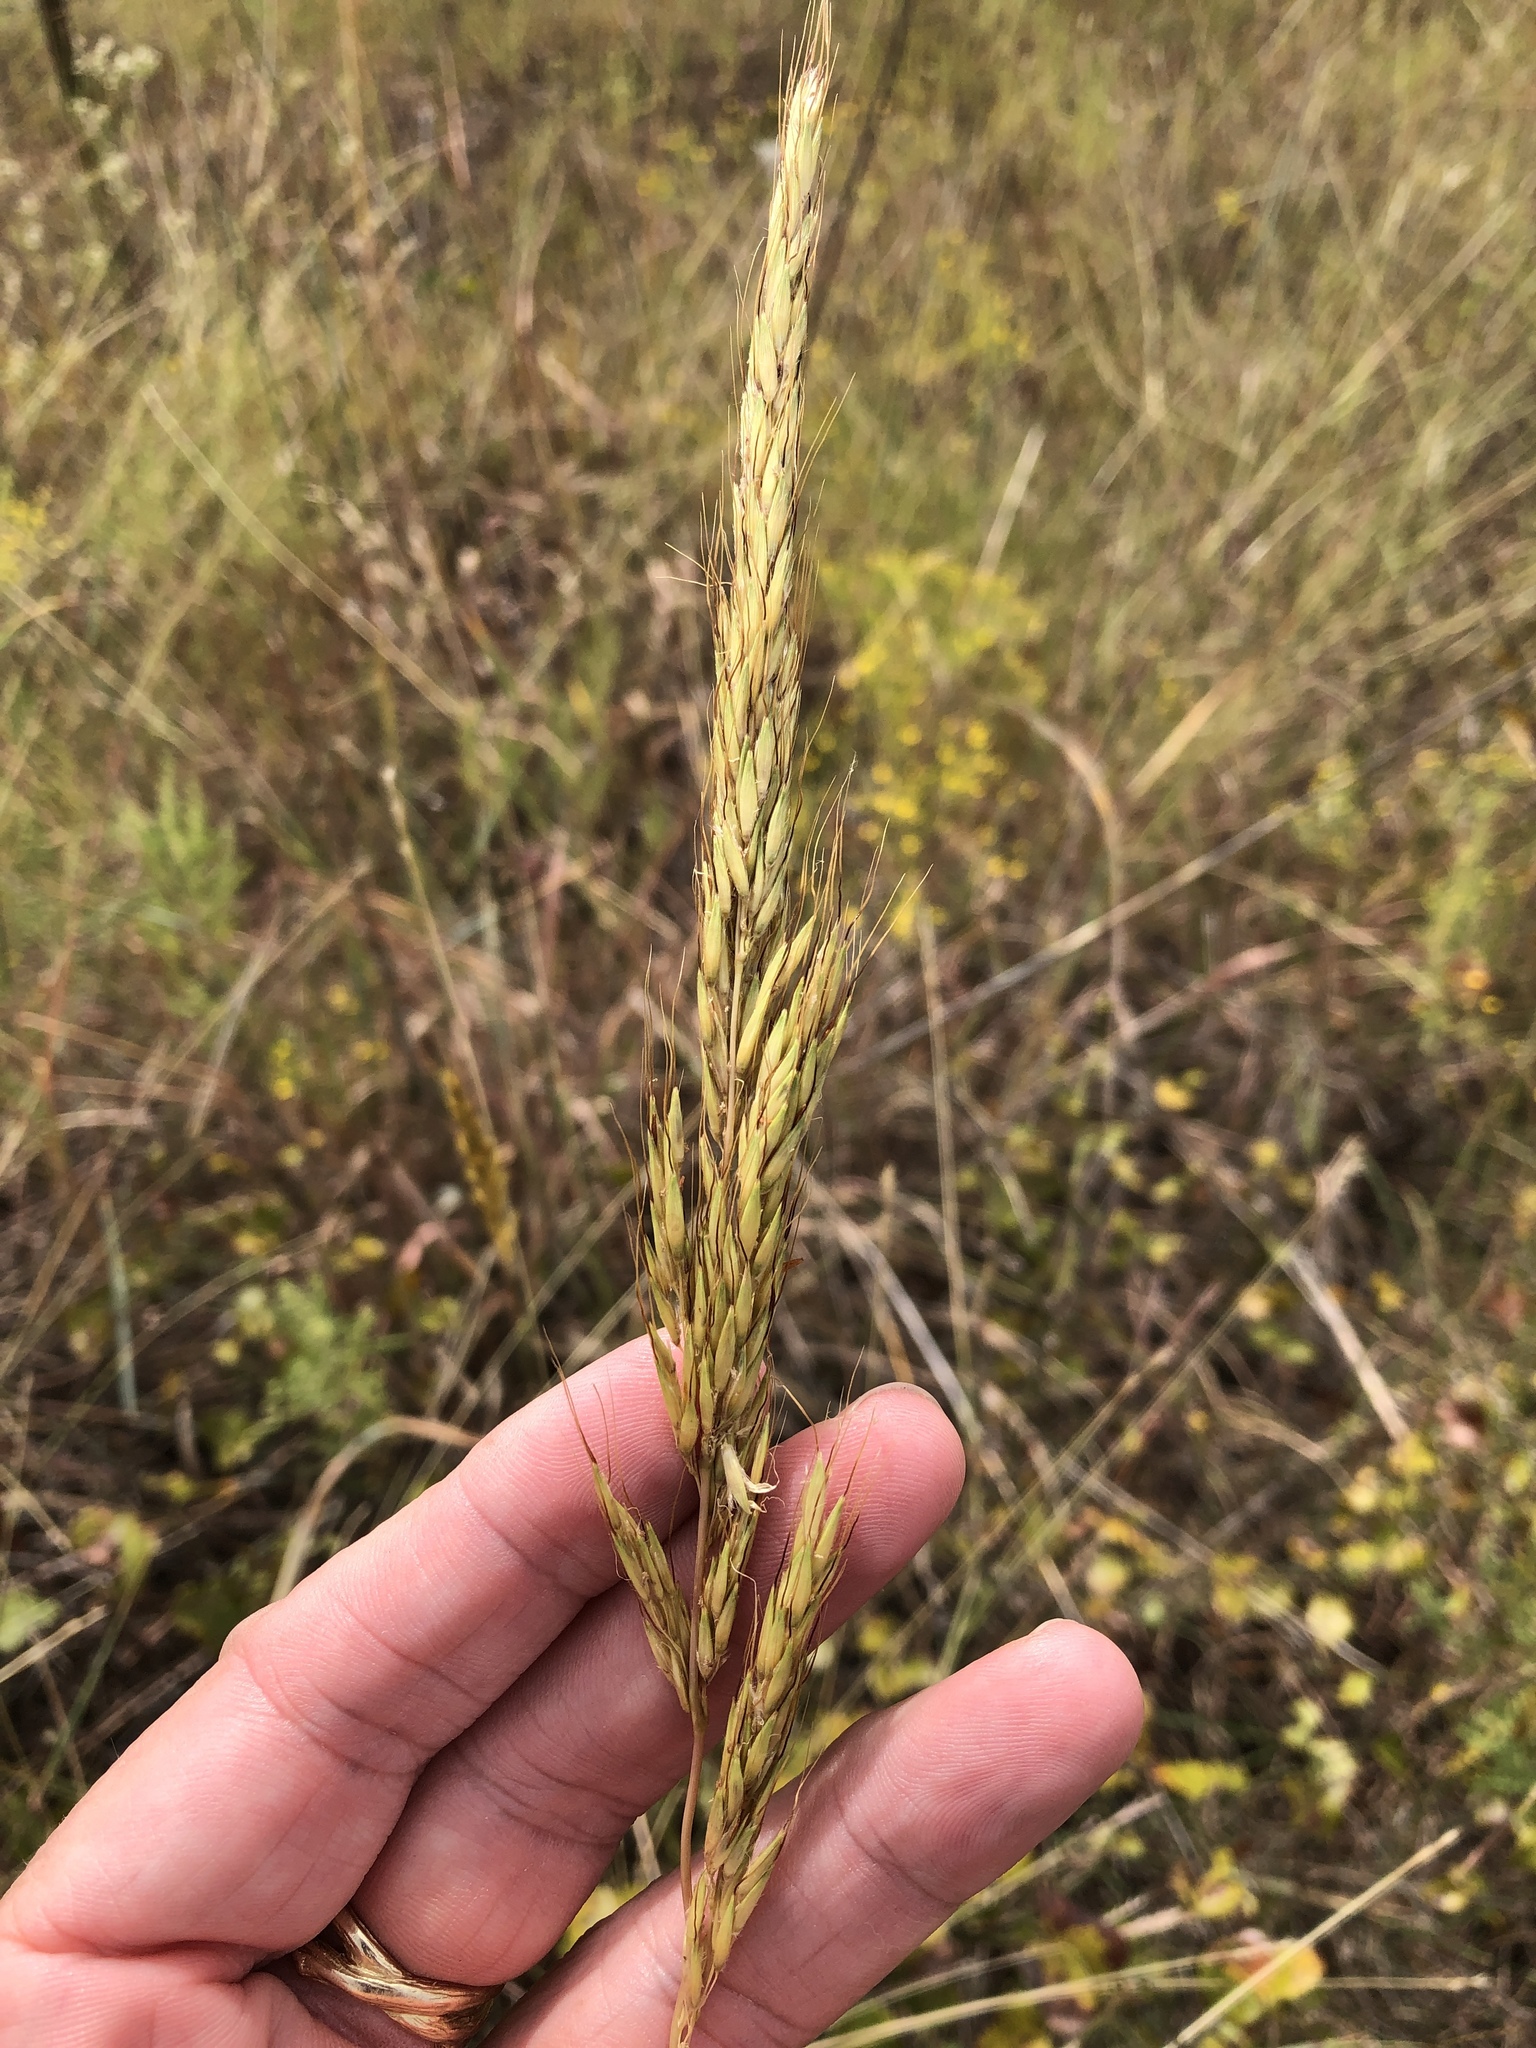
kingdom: Plantae
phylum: Tracheophyta
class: Liliopsida
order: Poales
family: Poaceae
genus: Sorghastrum
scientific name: Sorghastrum nutans
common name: Indian grass
